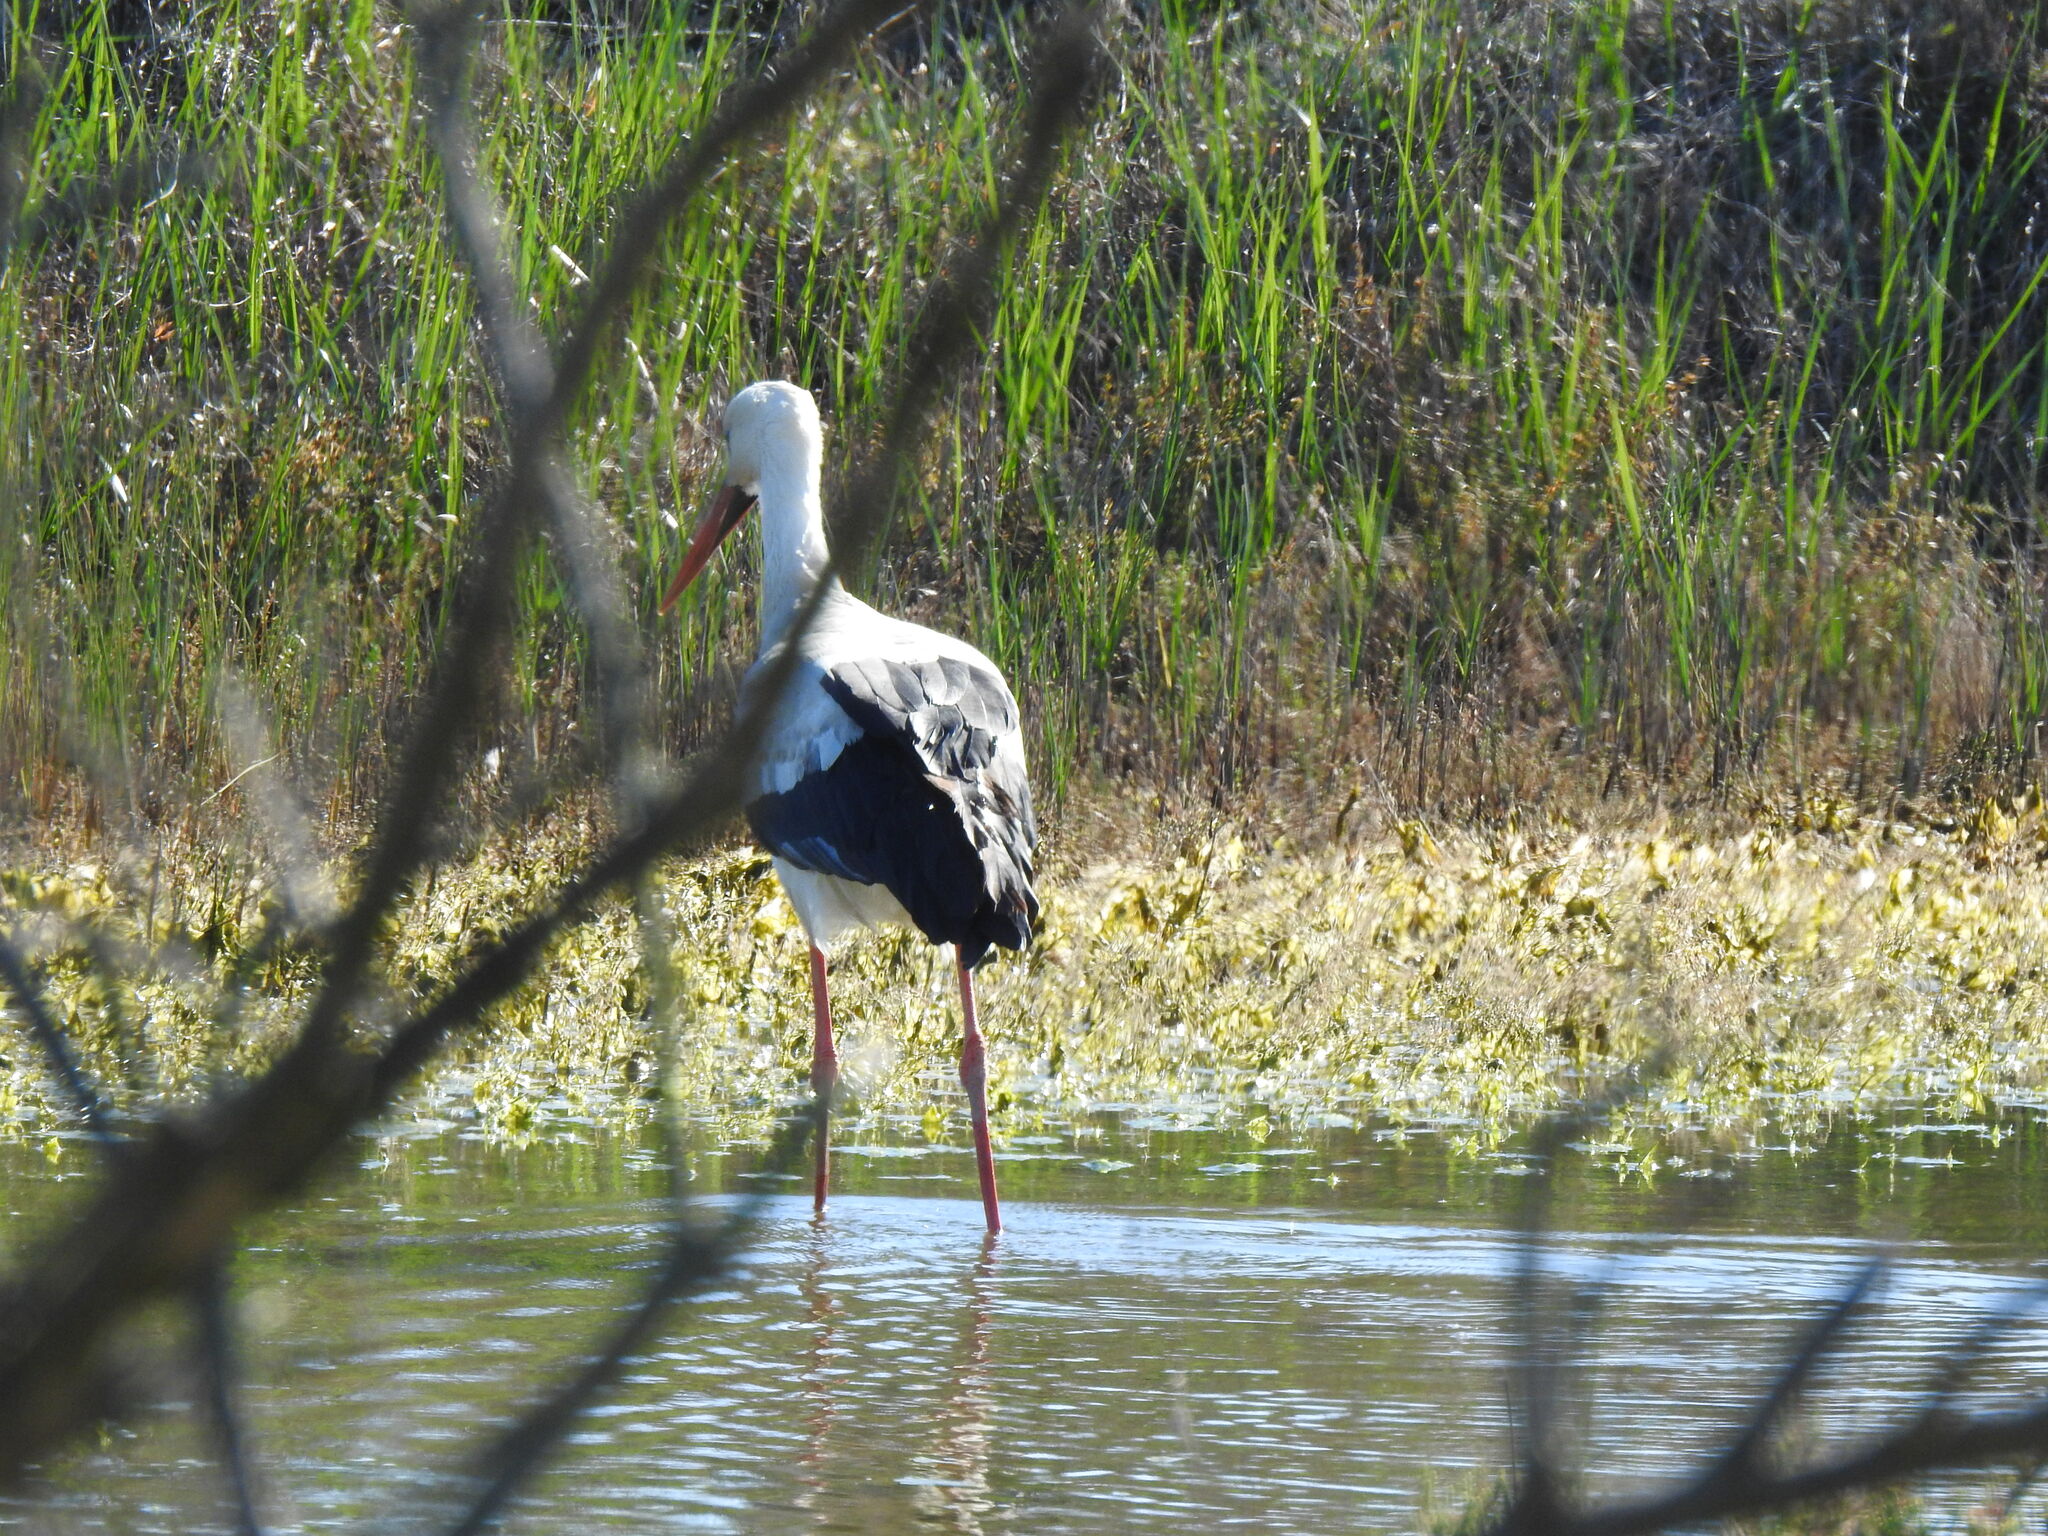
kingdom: Animalia
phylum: Chordata
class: Aves
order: Ciconiiformes
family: Ciconiidae
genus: Ciconia
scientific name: Ciconia ciconia
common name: White stork
